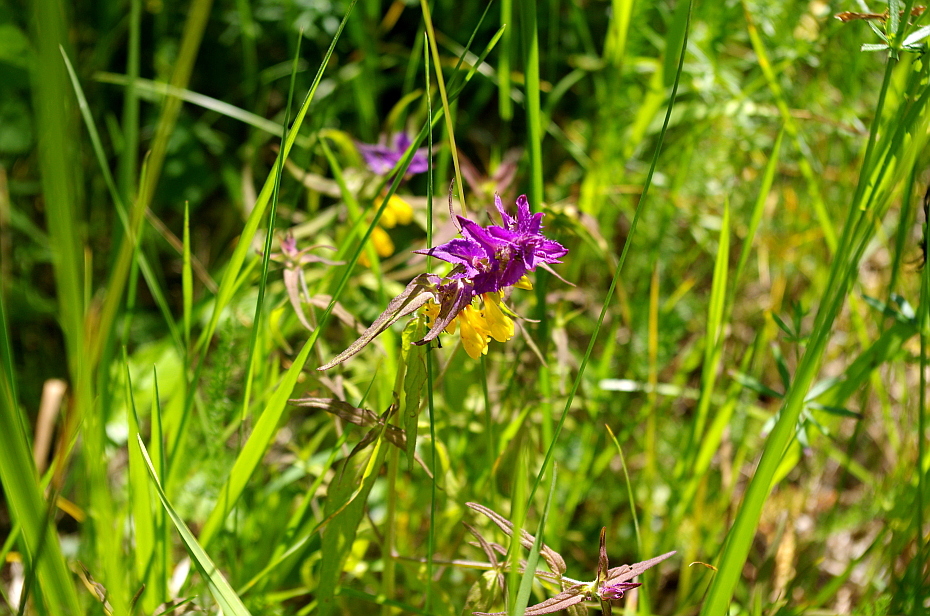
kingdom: Plantae
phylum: Tracheophyta
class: Magnoliopsida
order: Lamiales
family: Orobanchaceae
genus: Melampyrum
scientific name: Melampyrum nemorosum
